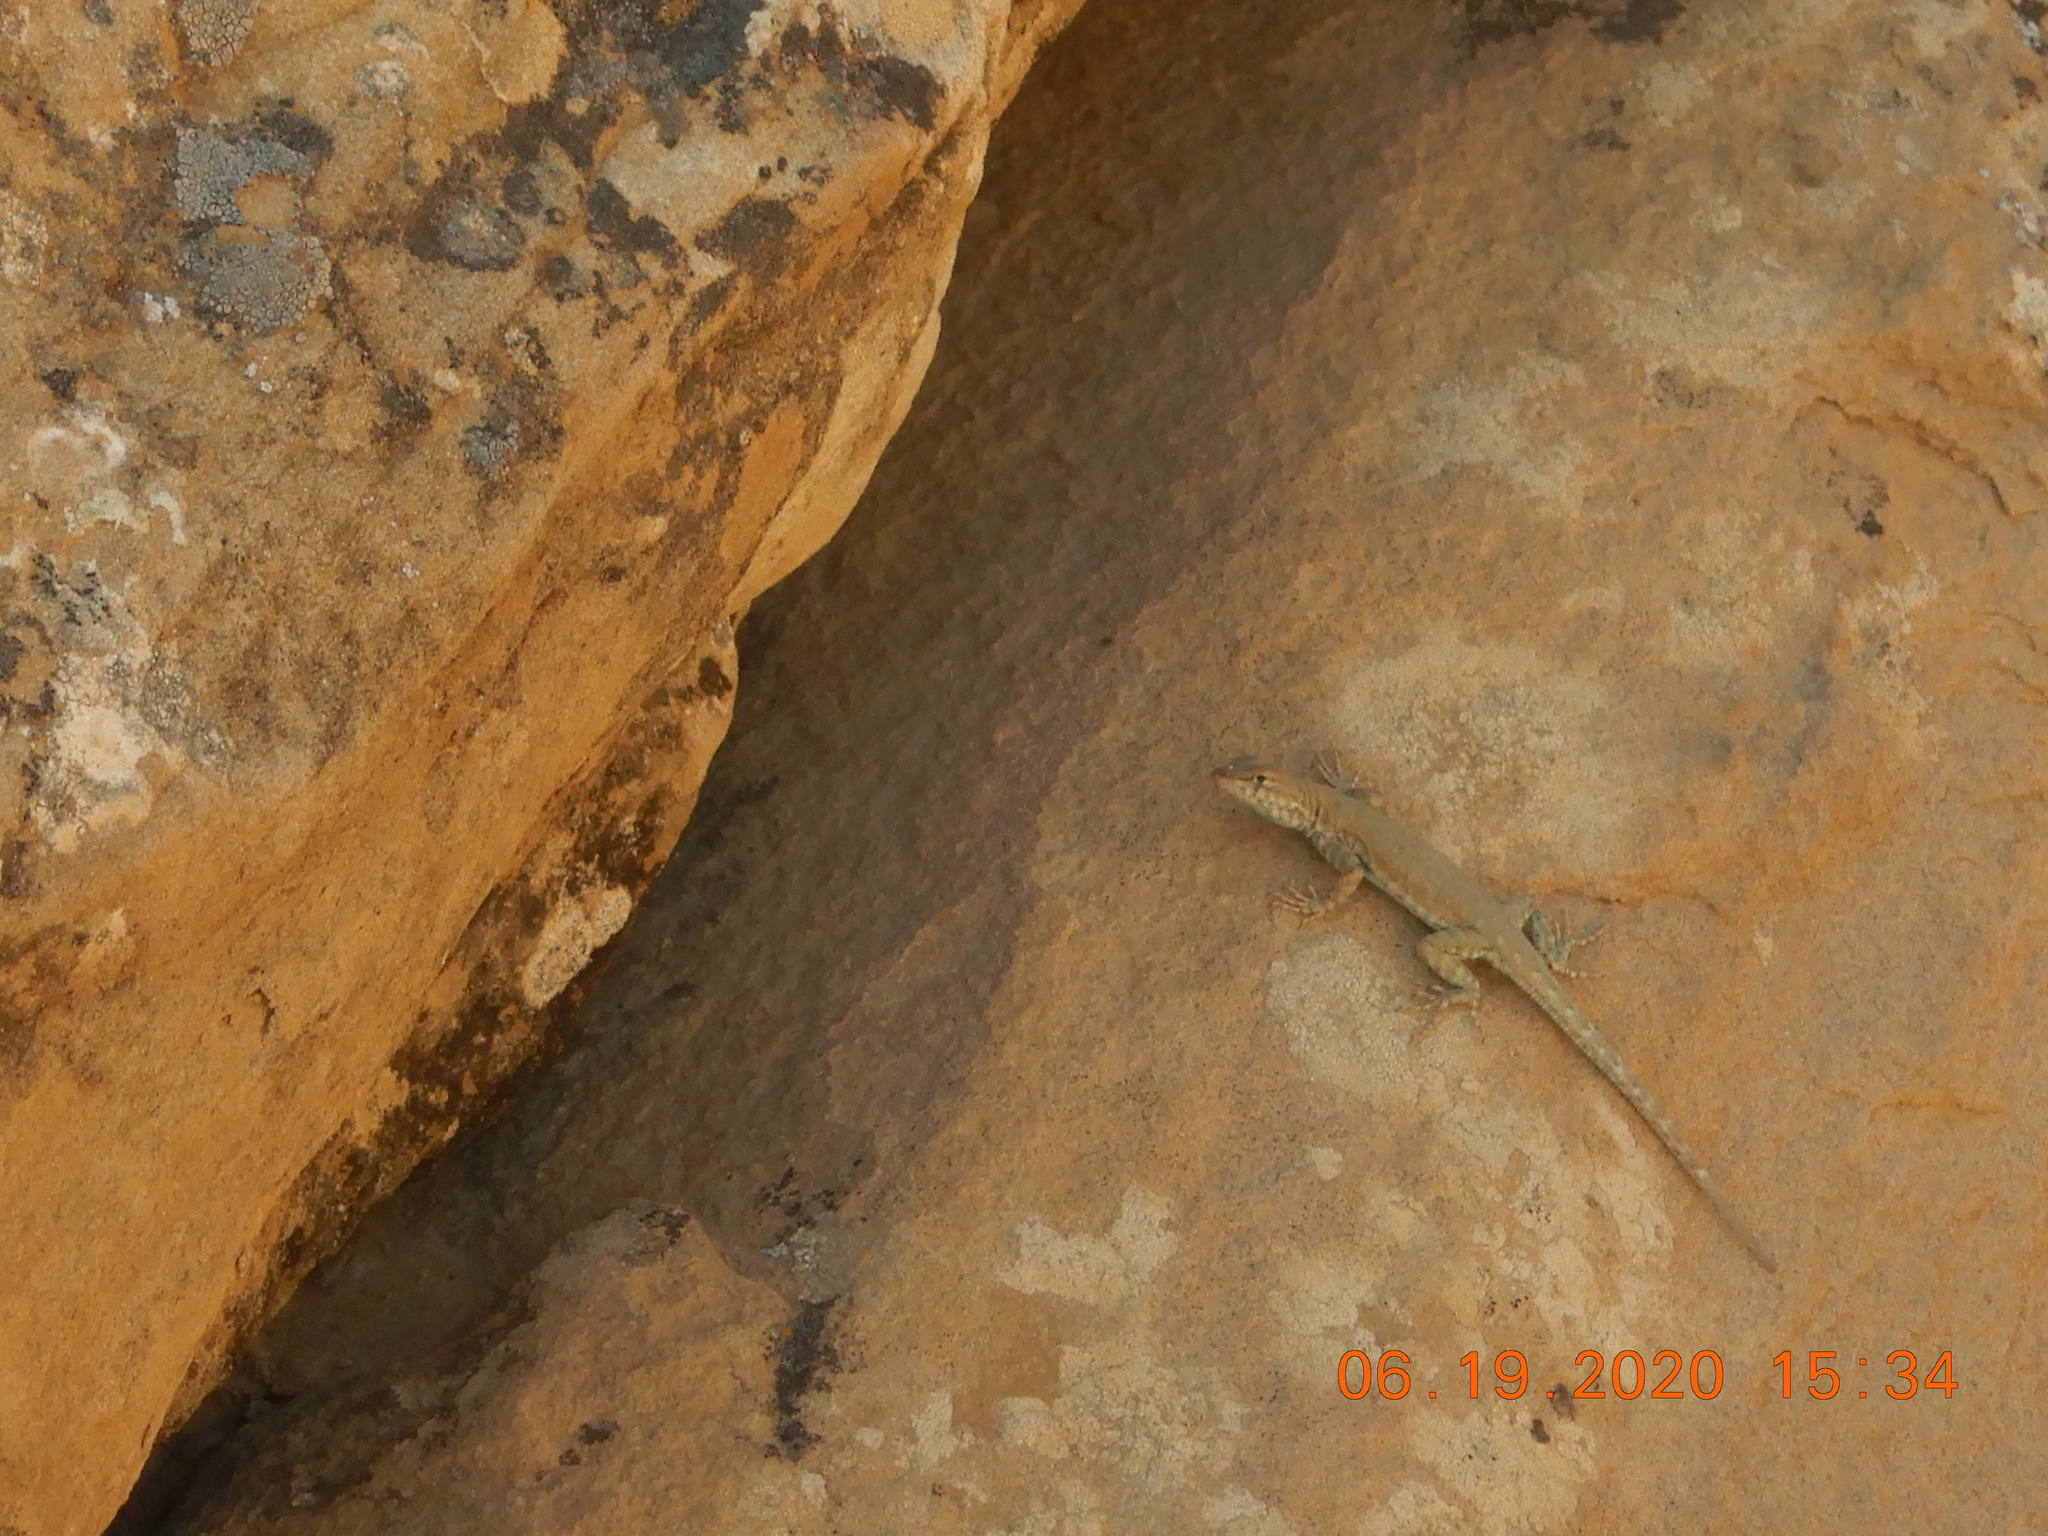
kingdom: Animalia
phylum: Chordata
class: Squamata
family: Phrynosomatidae
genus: Uta
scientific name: Uta stansburiana
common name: Side-blotched lizard
